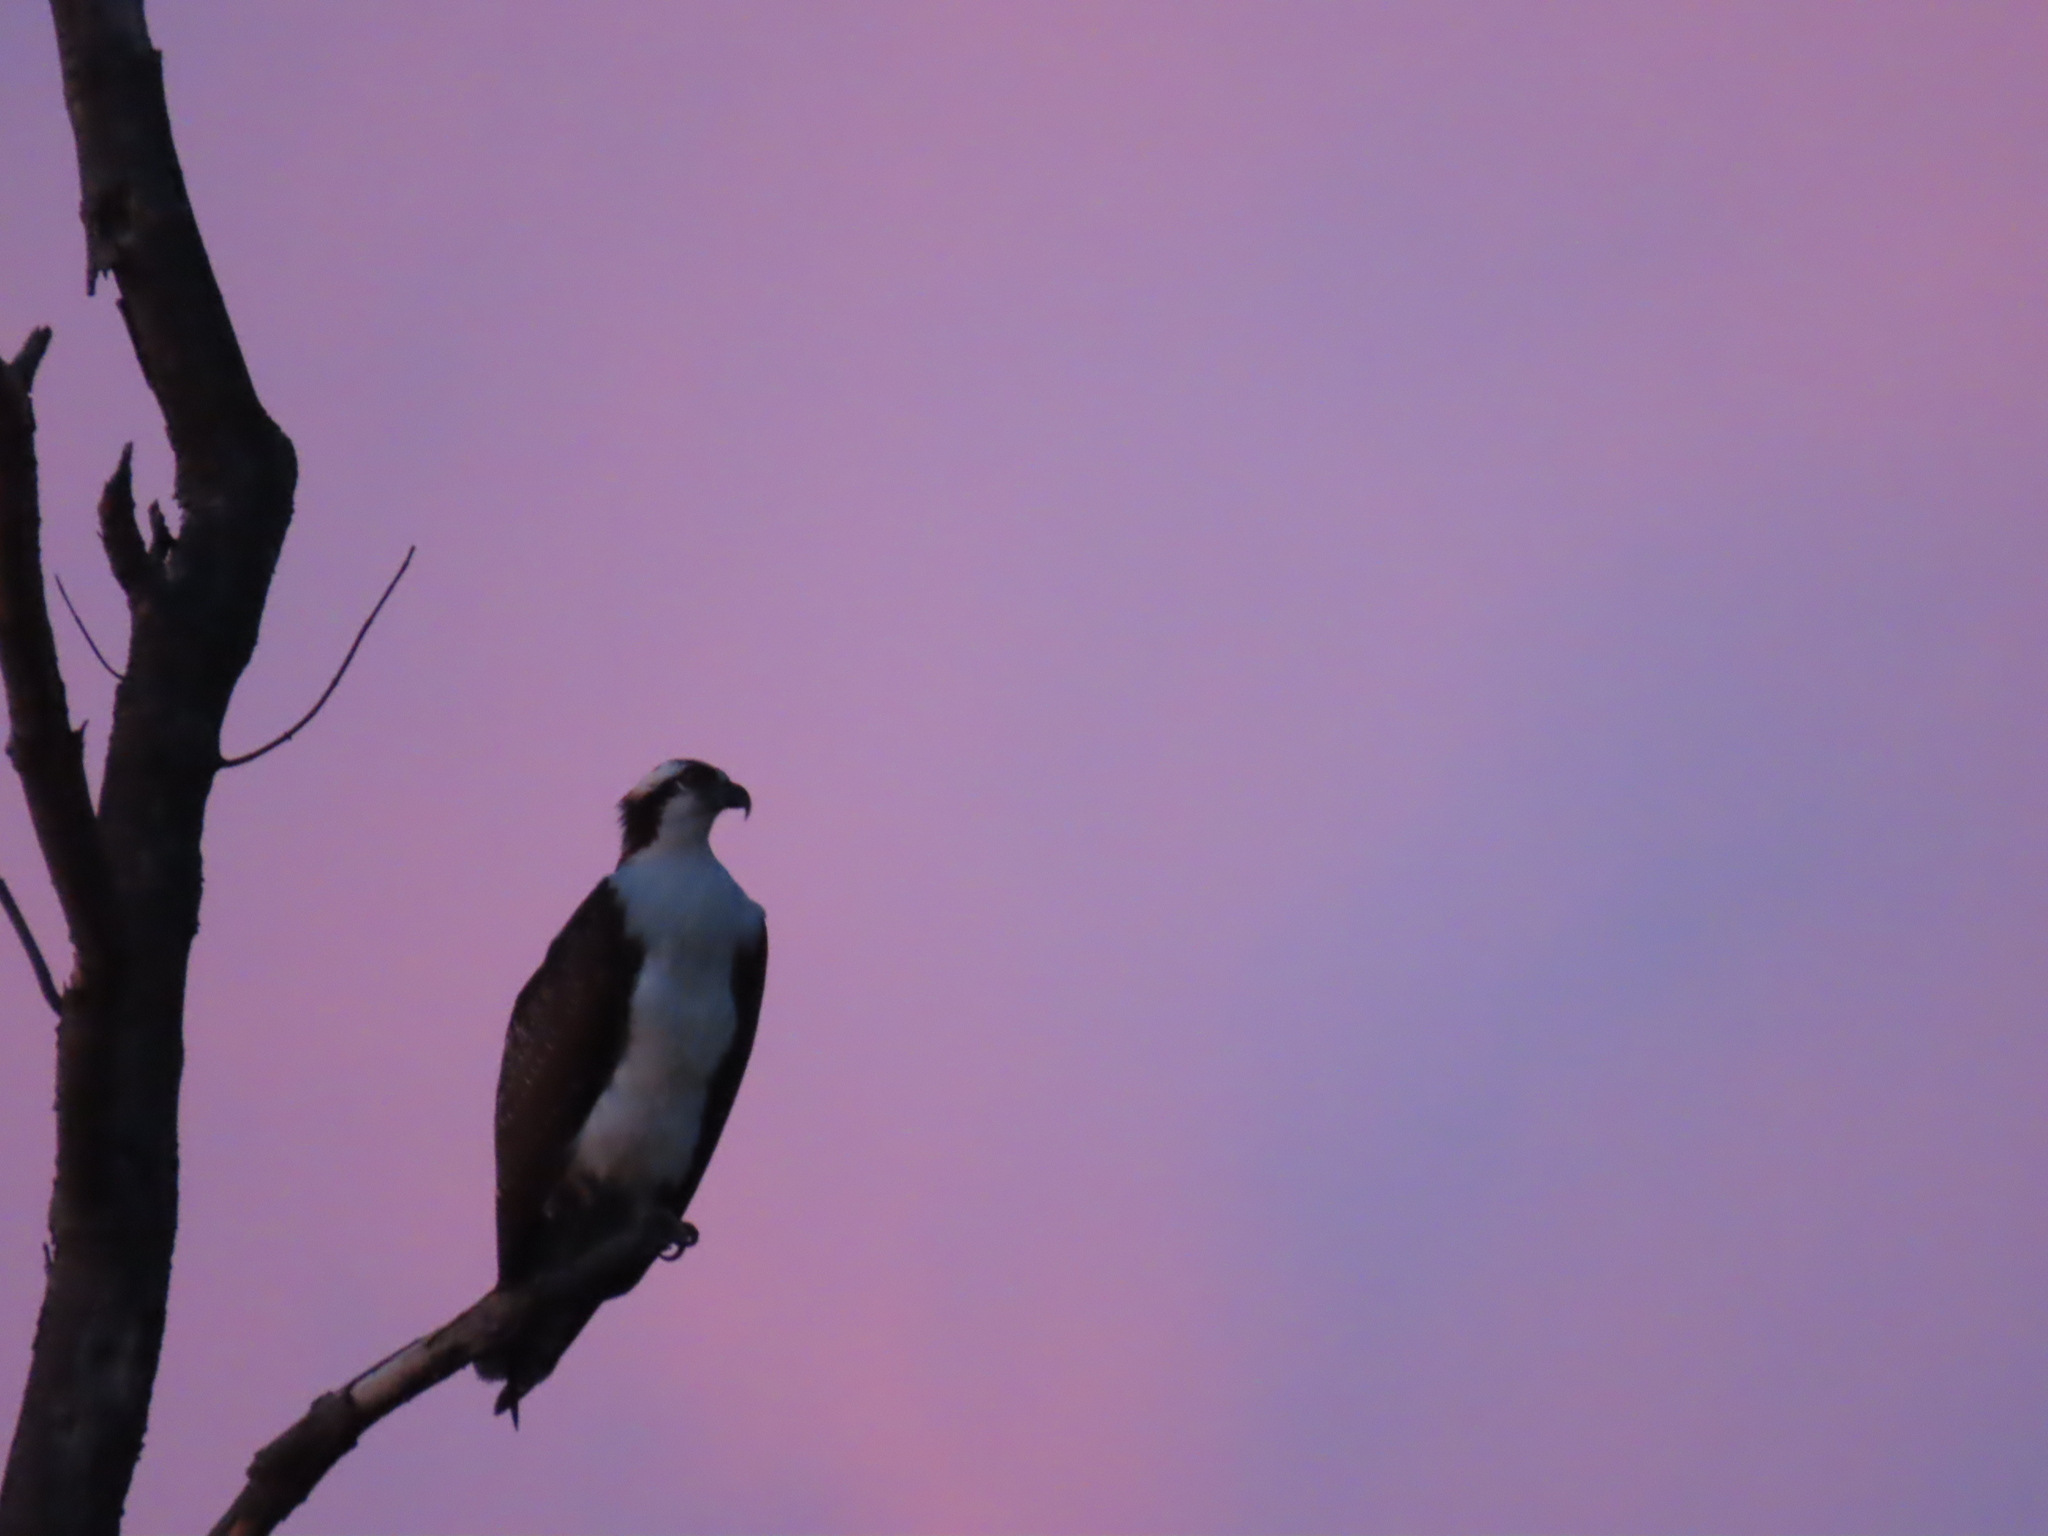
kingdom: Animalia
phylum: Chordata
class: Aves
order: Accipitriformes
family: Pandionidae
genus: Pandion
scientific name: Pandion haliaetus
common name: Osprey
